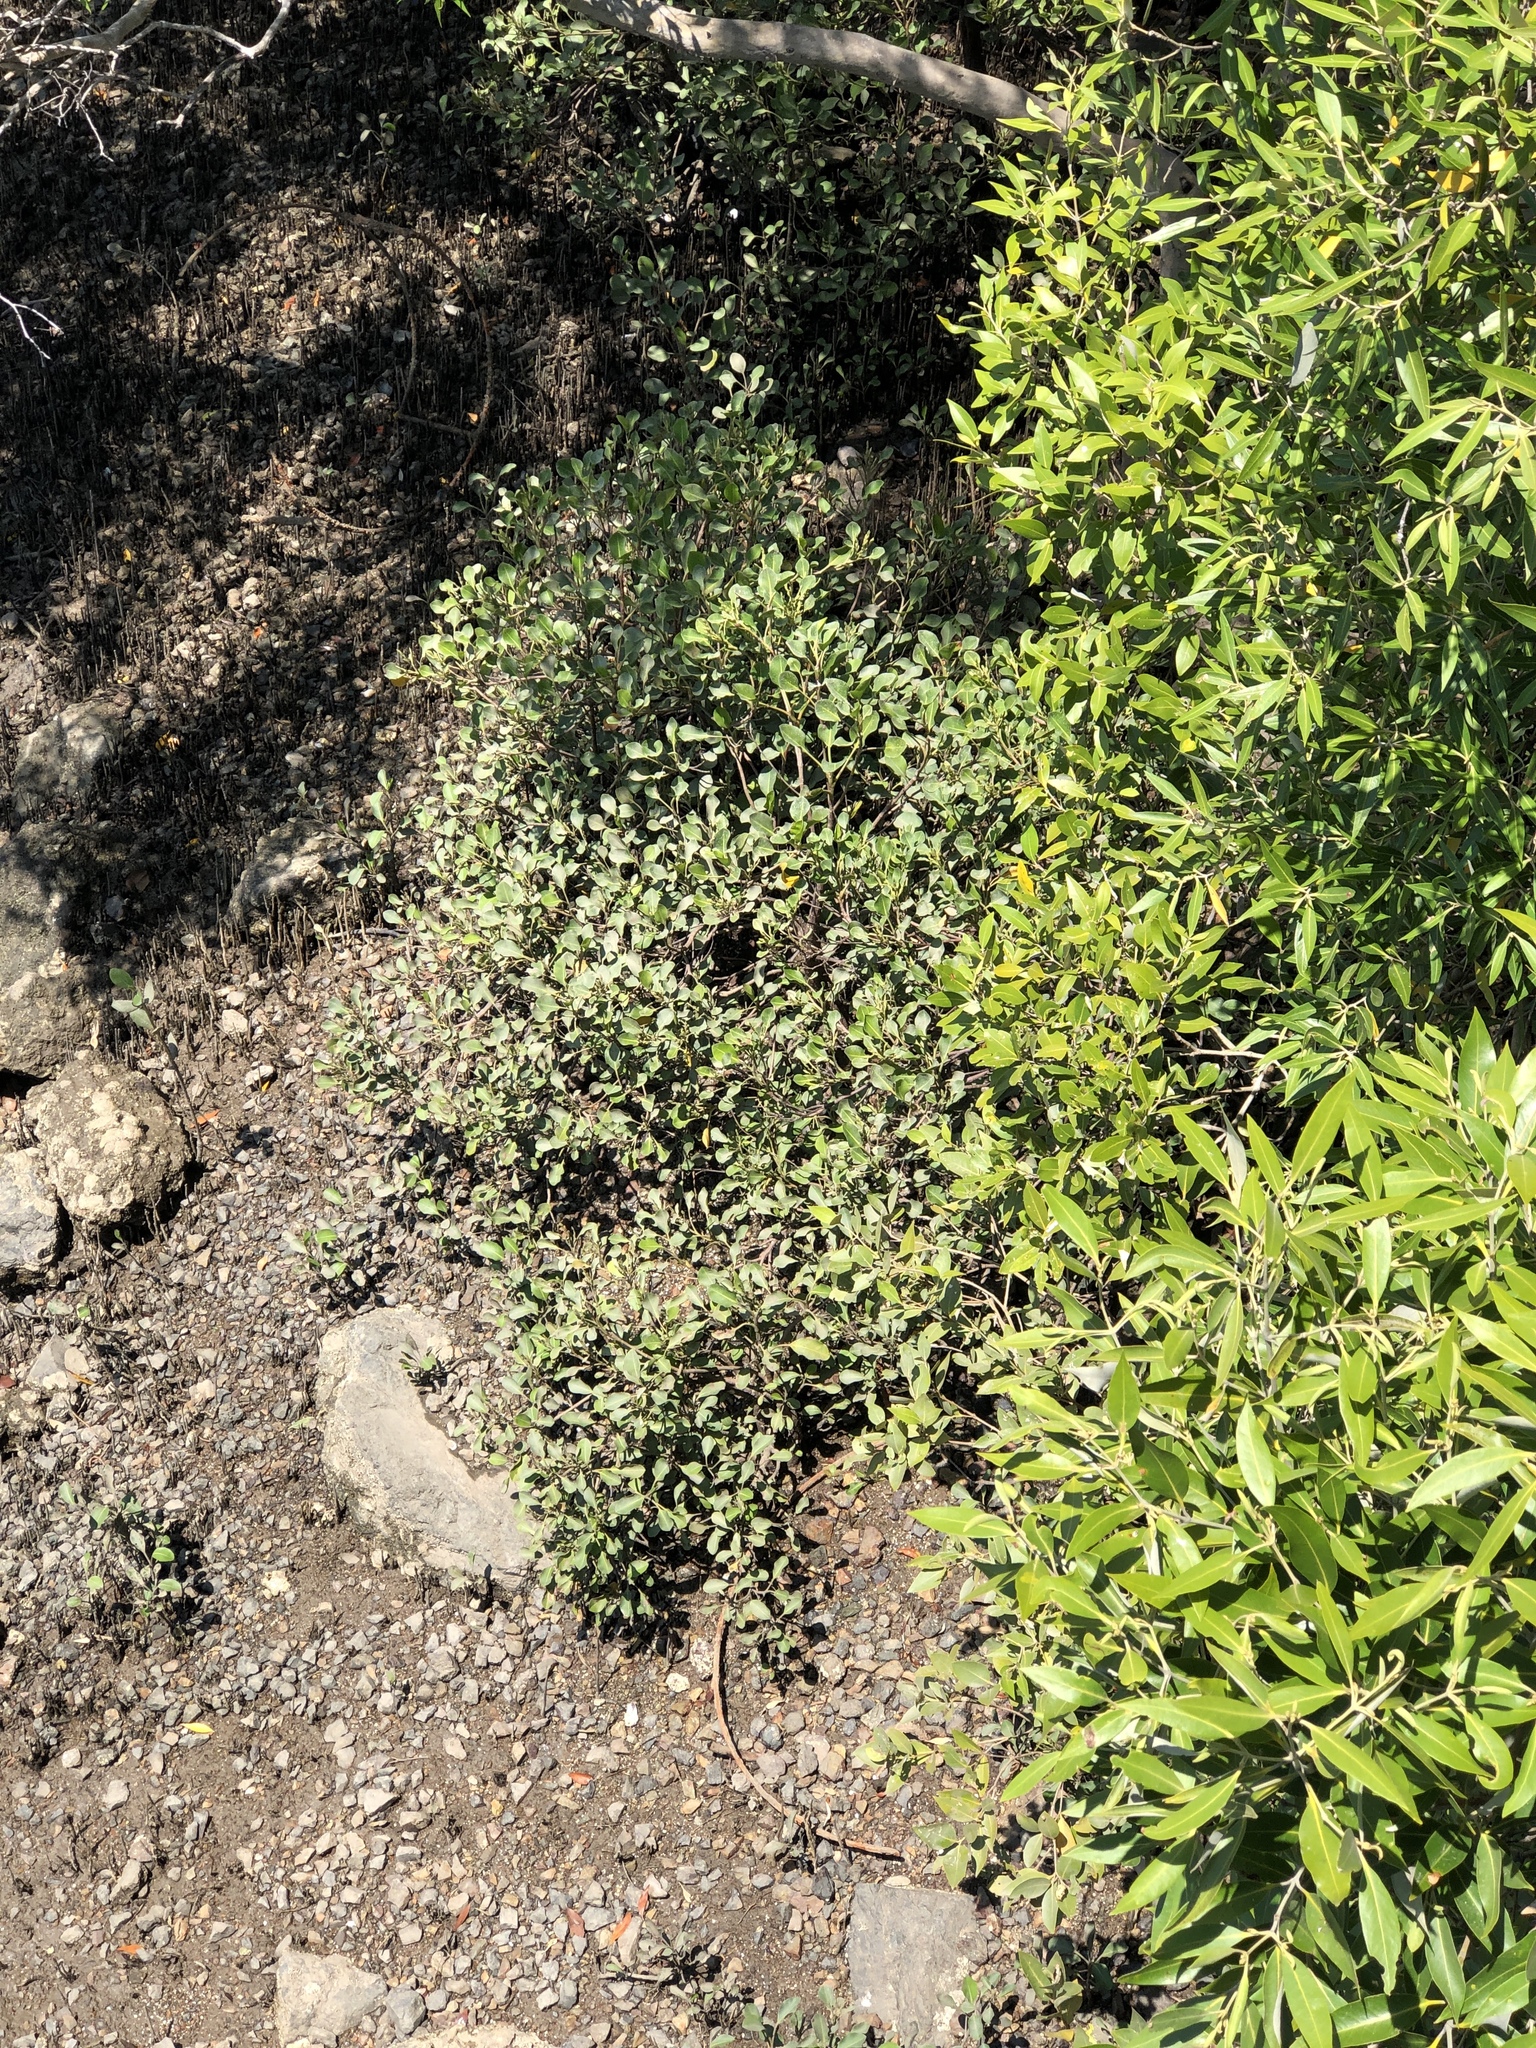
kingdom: Plantae
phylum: Tracheophyta
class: Magnoliopsida
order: Caryophyllales
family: Plumbaginaceae
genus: Aegialitis
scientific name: Aegialitis annulata
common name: Club mangrove
